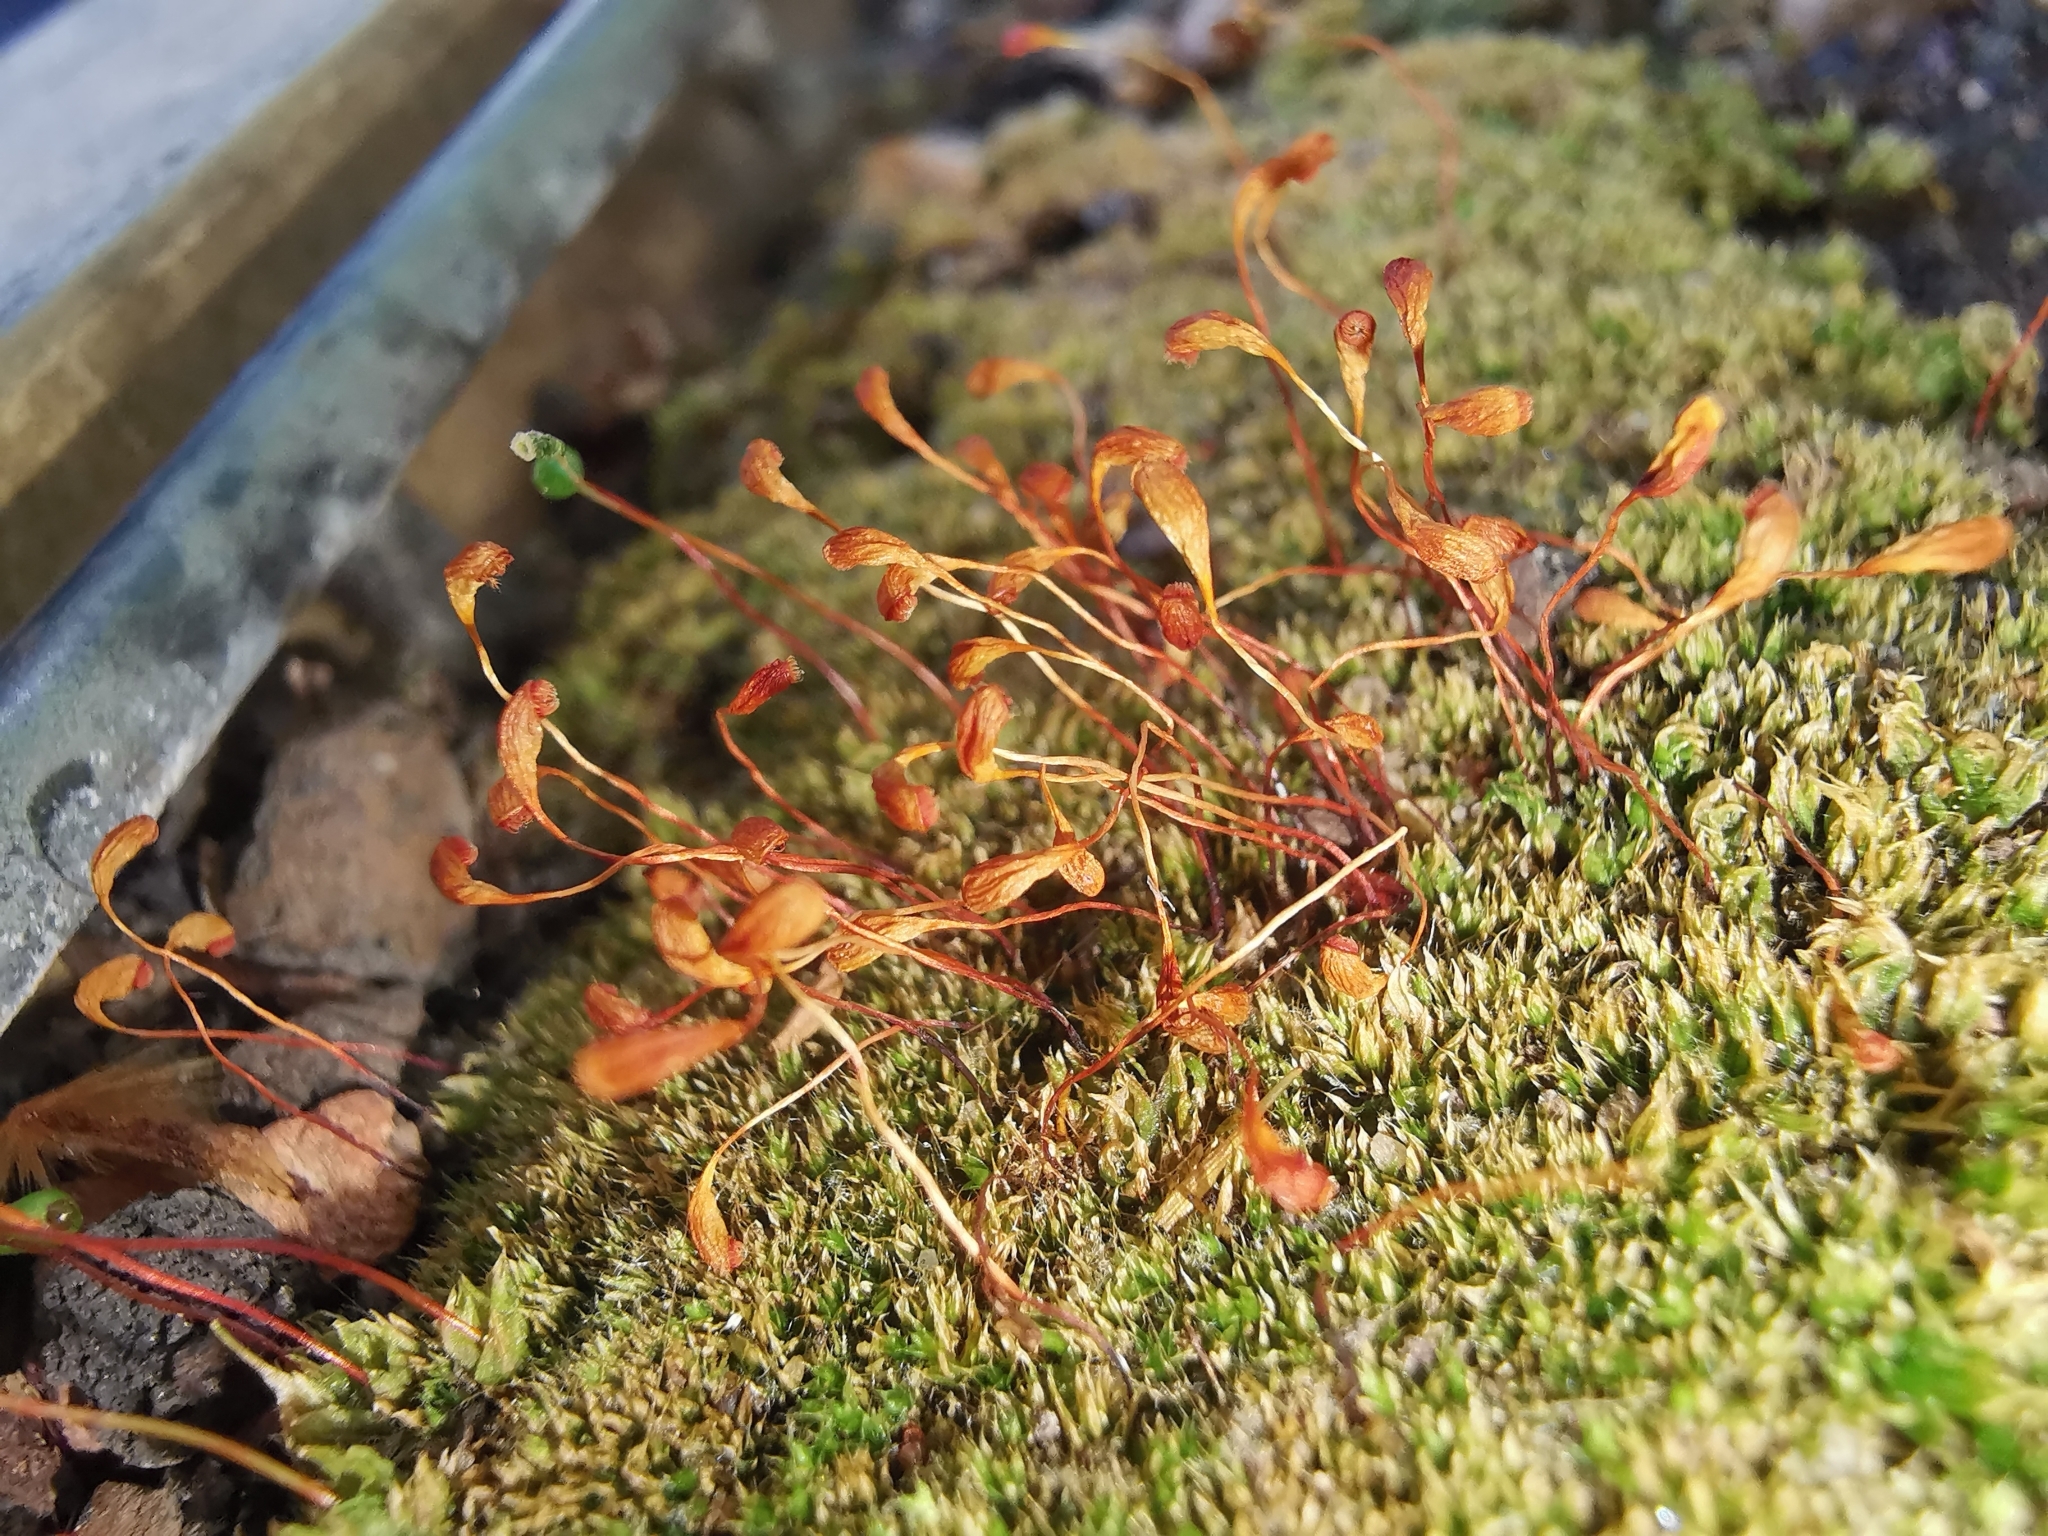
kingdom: Plantae
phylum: Bryophyta
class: Bryopsida
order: Funariales
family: Funariaceae
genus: Funaria
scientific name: Funaria hygrometrica
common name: Common cord moss
